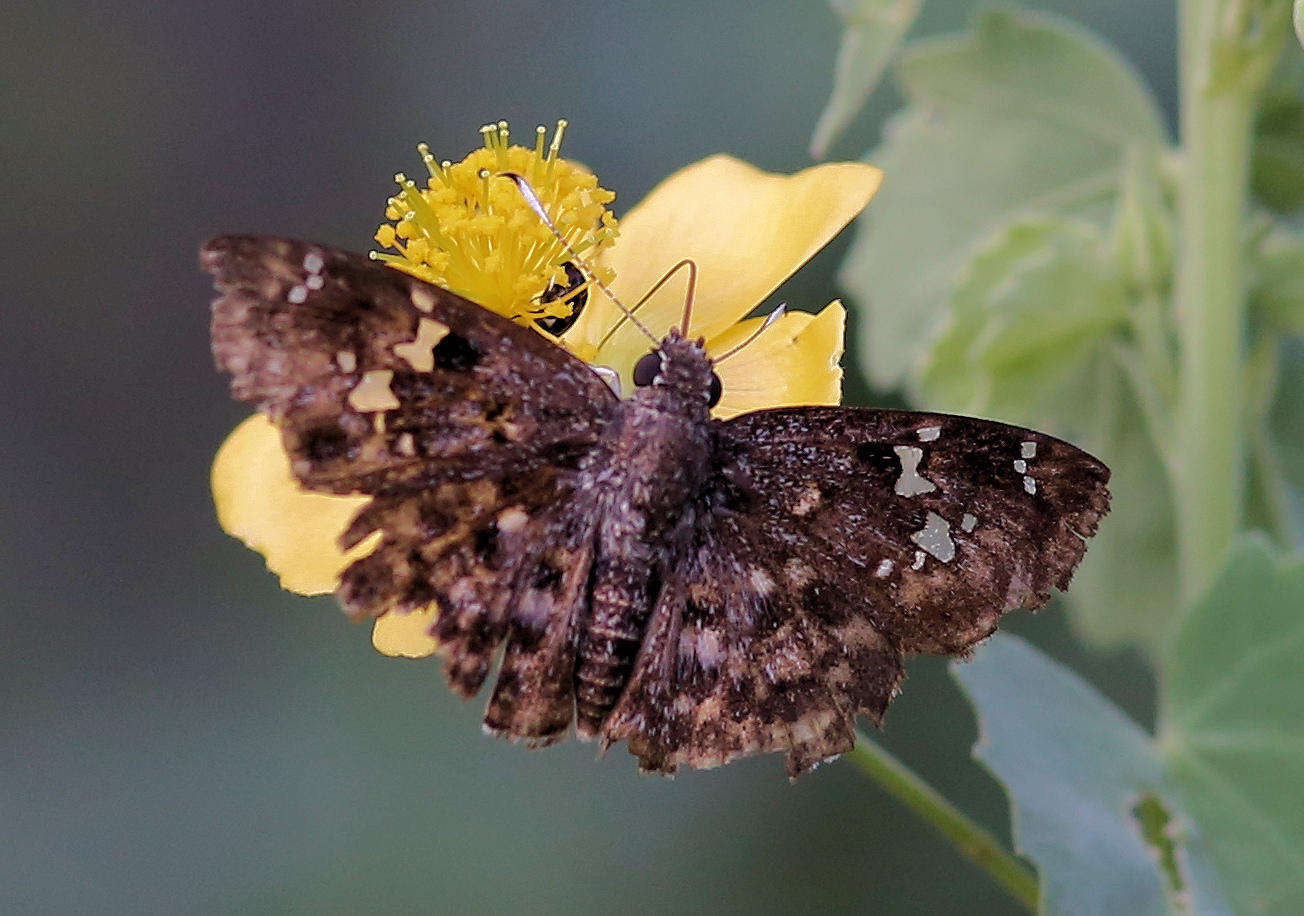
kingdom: Animalia
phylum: Arthropoda
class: Insecta
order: Lepidoptera
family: Hesperiidae
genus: Sarangesa
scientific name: Sarangesa seineri
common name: Dark elfin
